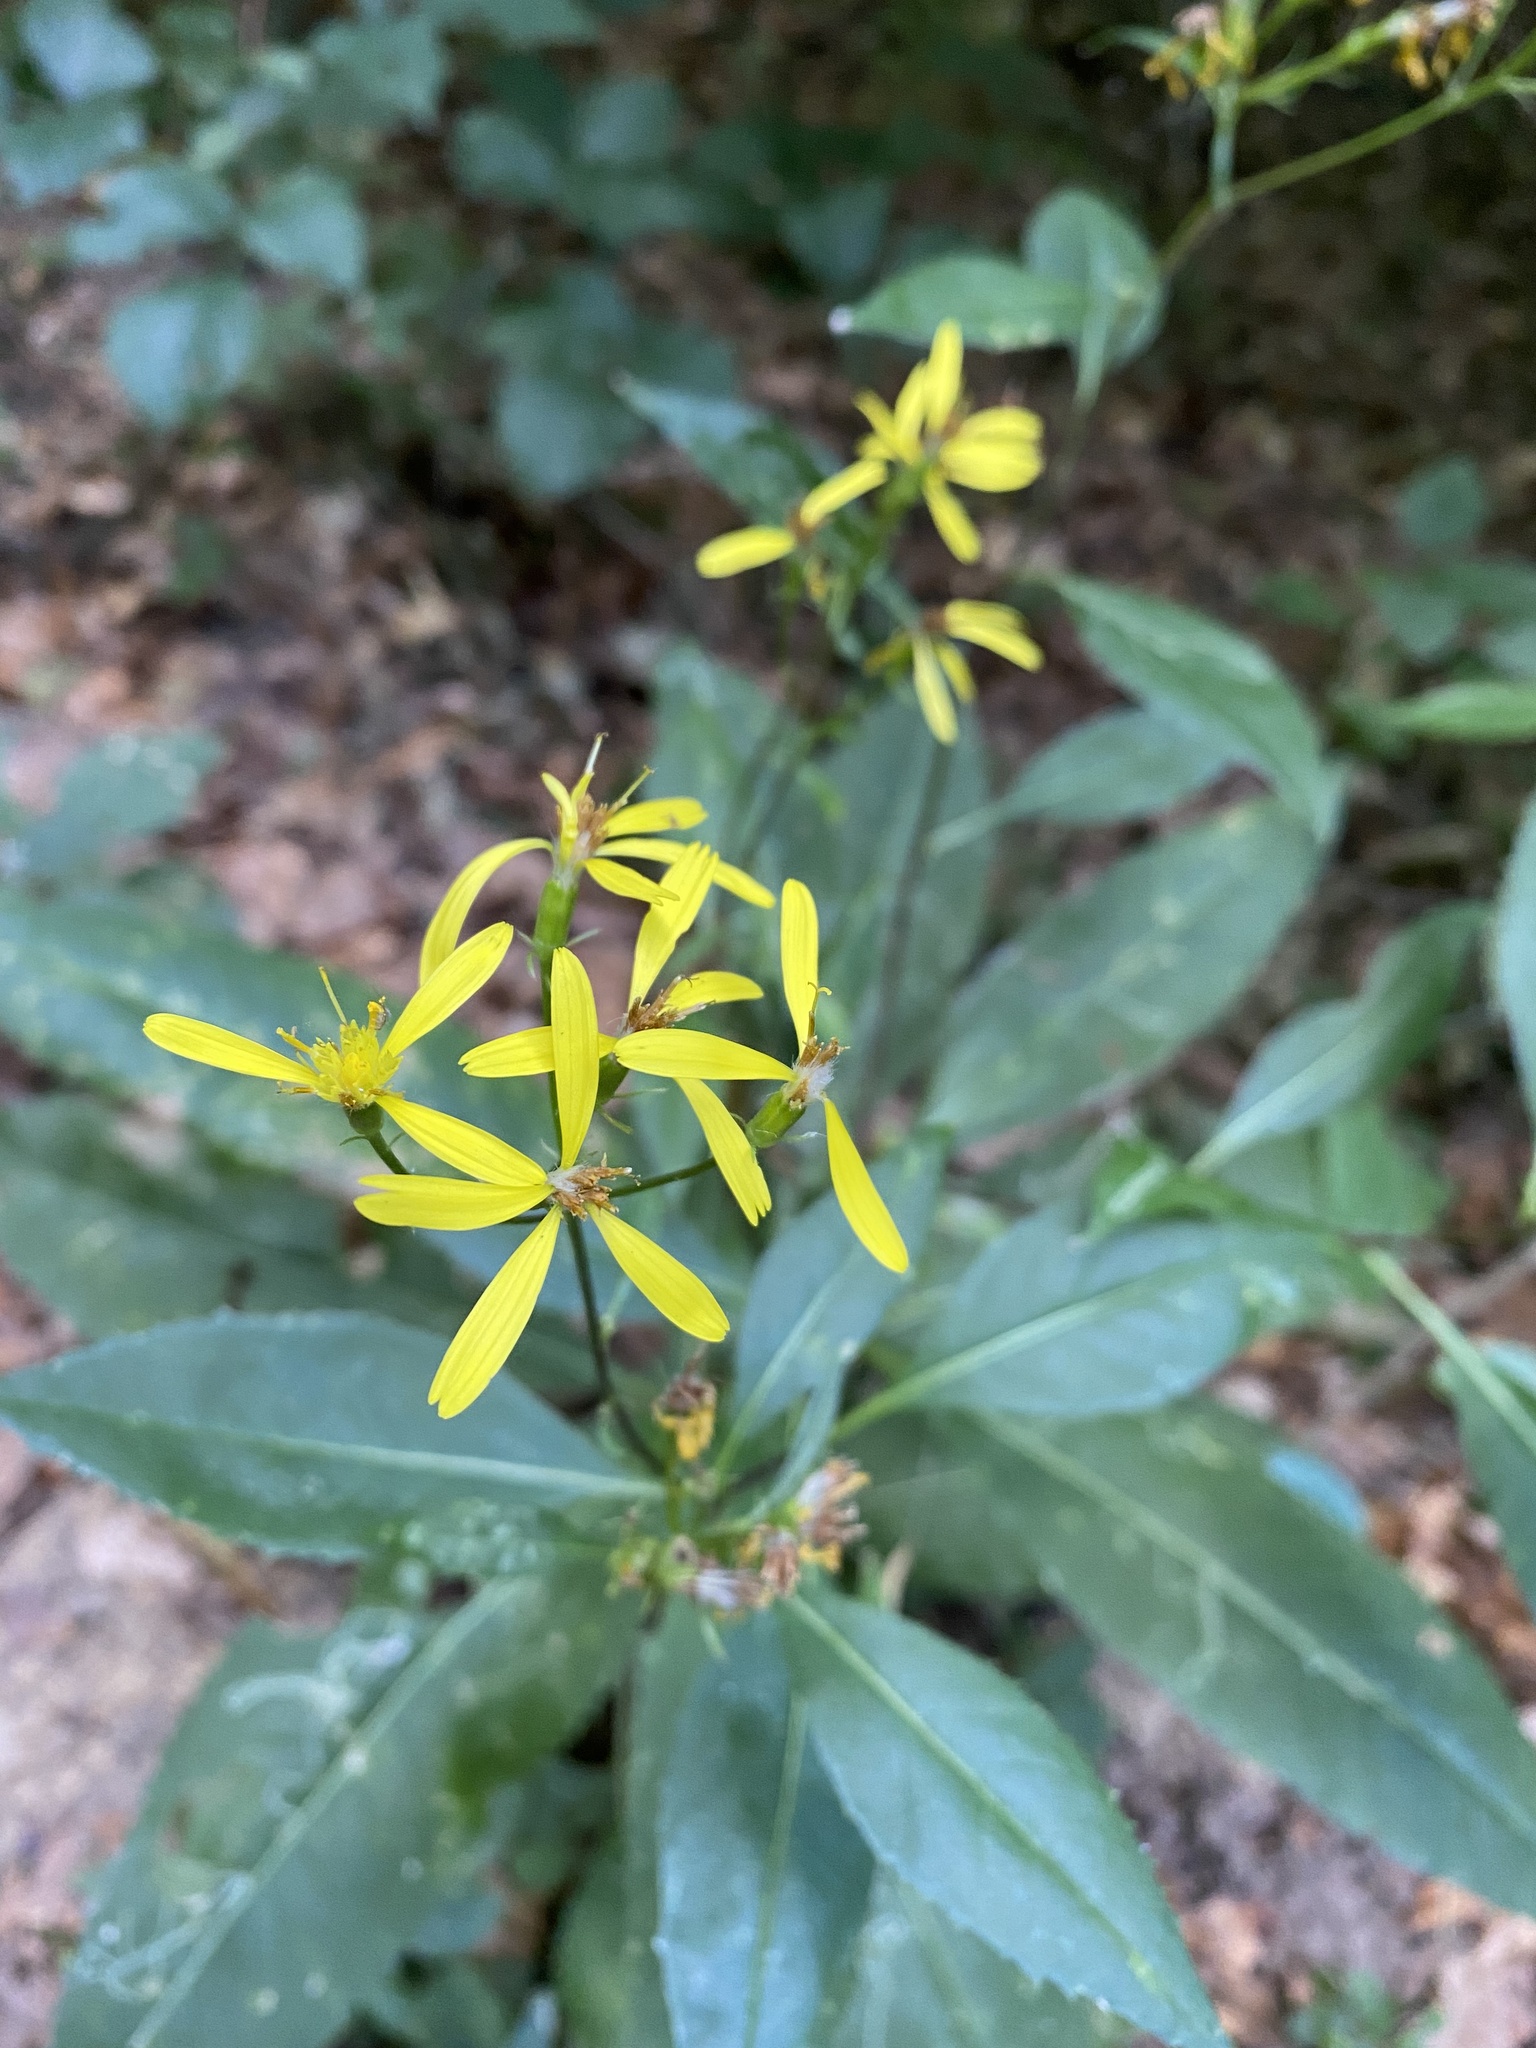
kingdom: Plantae
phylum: Tracheophyta
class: Magnoliopsida
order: Asterales
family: Asteraceae
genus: Senecio
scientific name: Senecio ovatus
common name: Wood ragwort
